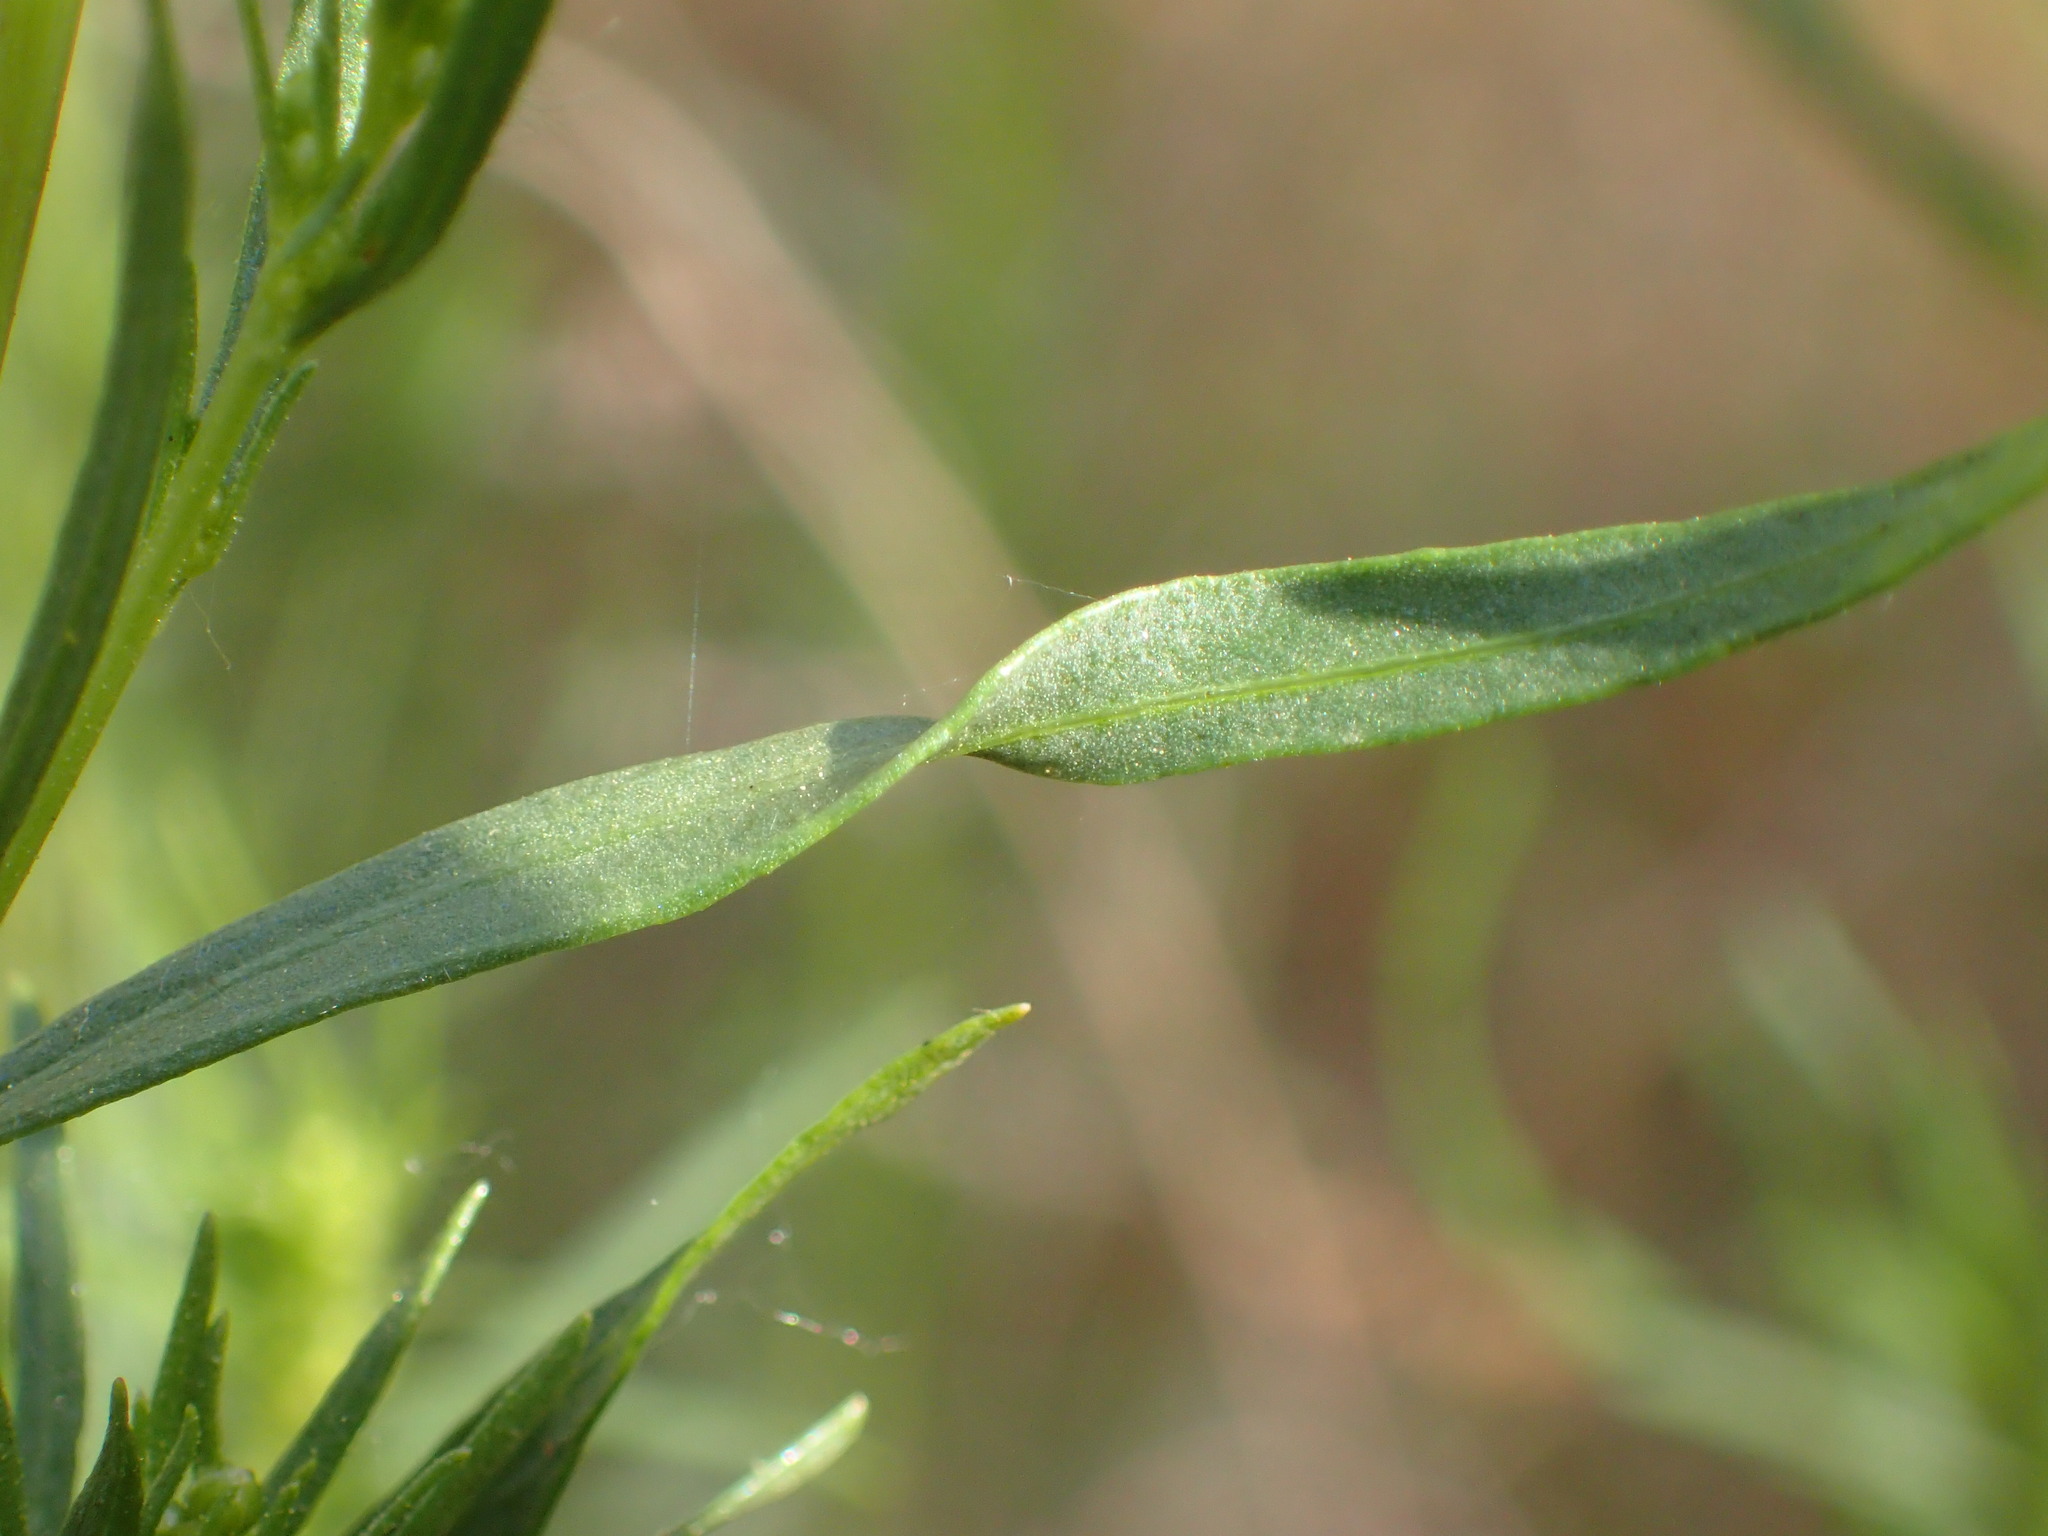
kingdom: Plantae
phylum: Tracheophyta
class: Magnoliopsida
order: Asterales
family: Asteraceae
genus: Artemisia
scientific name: Artemisia dracunculus
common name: Tarragon
